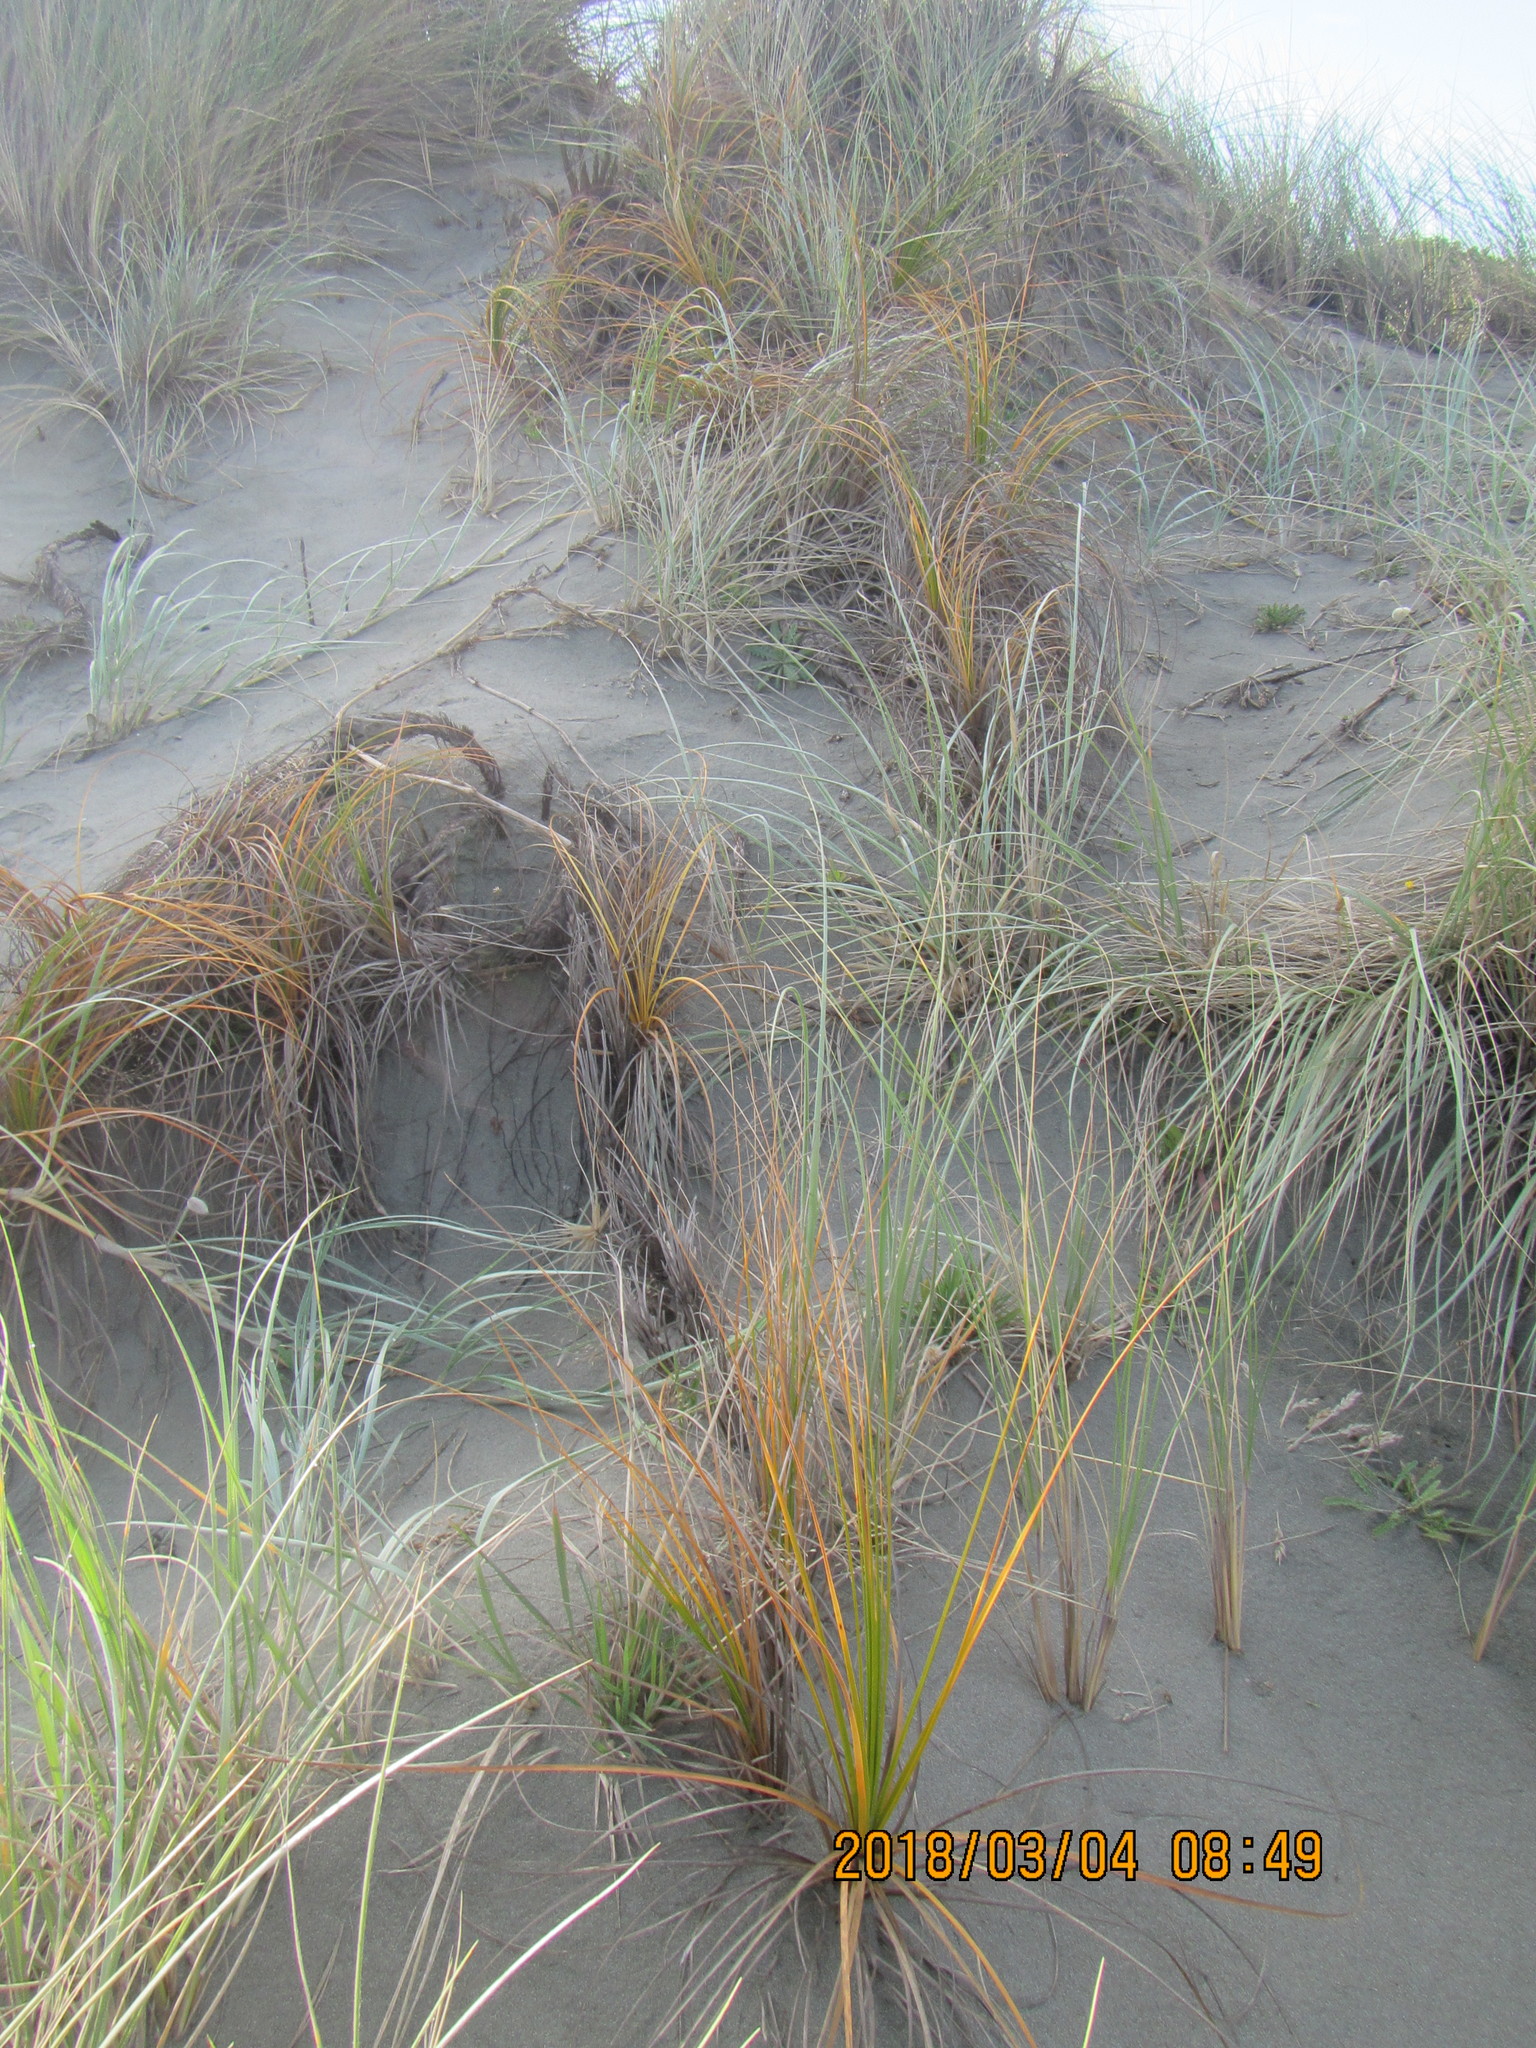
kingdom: Plantae
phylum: Tracheophyta
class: Liliopsida
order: Poales
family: Cyperaceae
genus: Ficinia
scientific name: Ficinia spiralis
